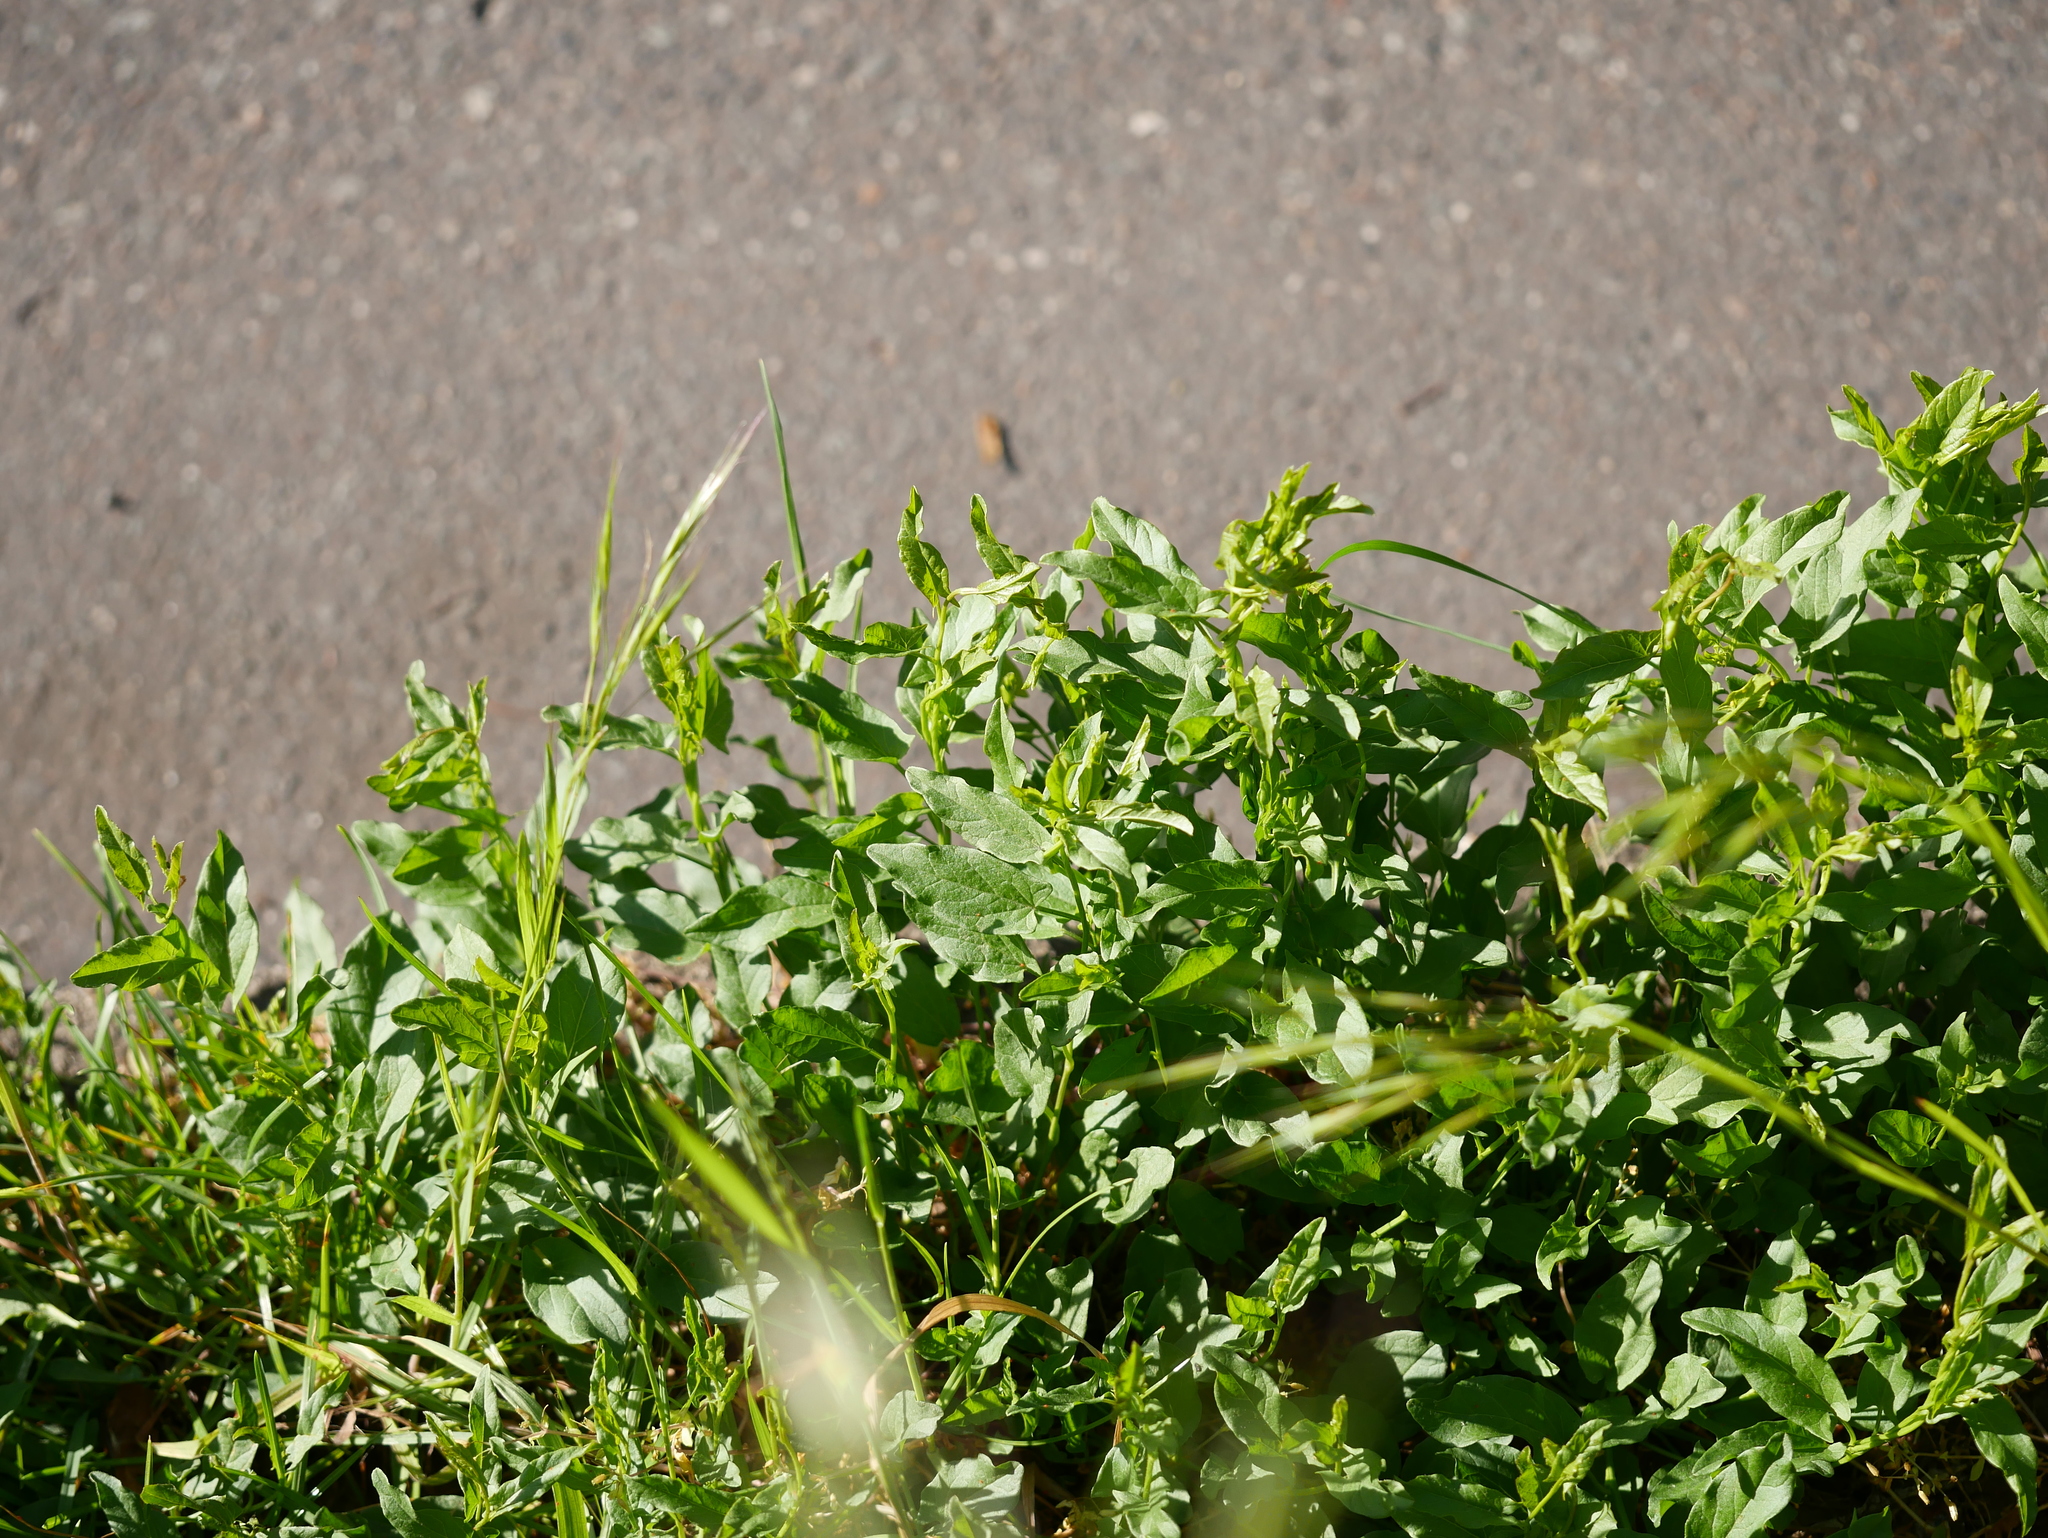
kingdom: Plantae
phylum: Tracheophyta
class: Magnoliopsida
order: Solanales
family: Convolvulaceae
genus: Convolvulus
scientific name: Convolvulus arvensis
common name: Field bindweed
